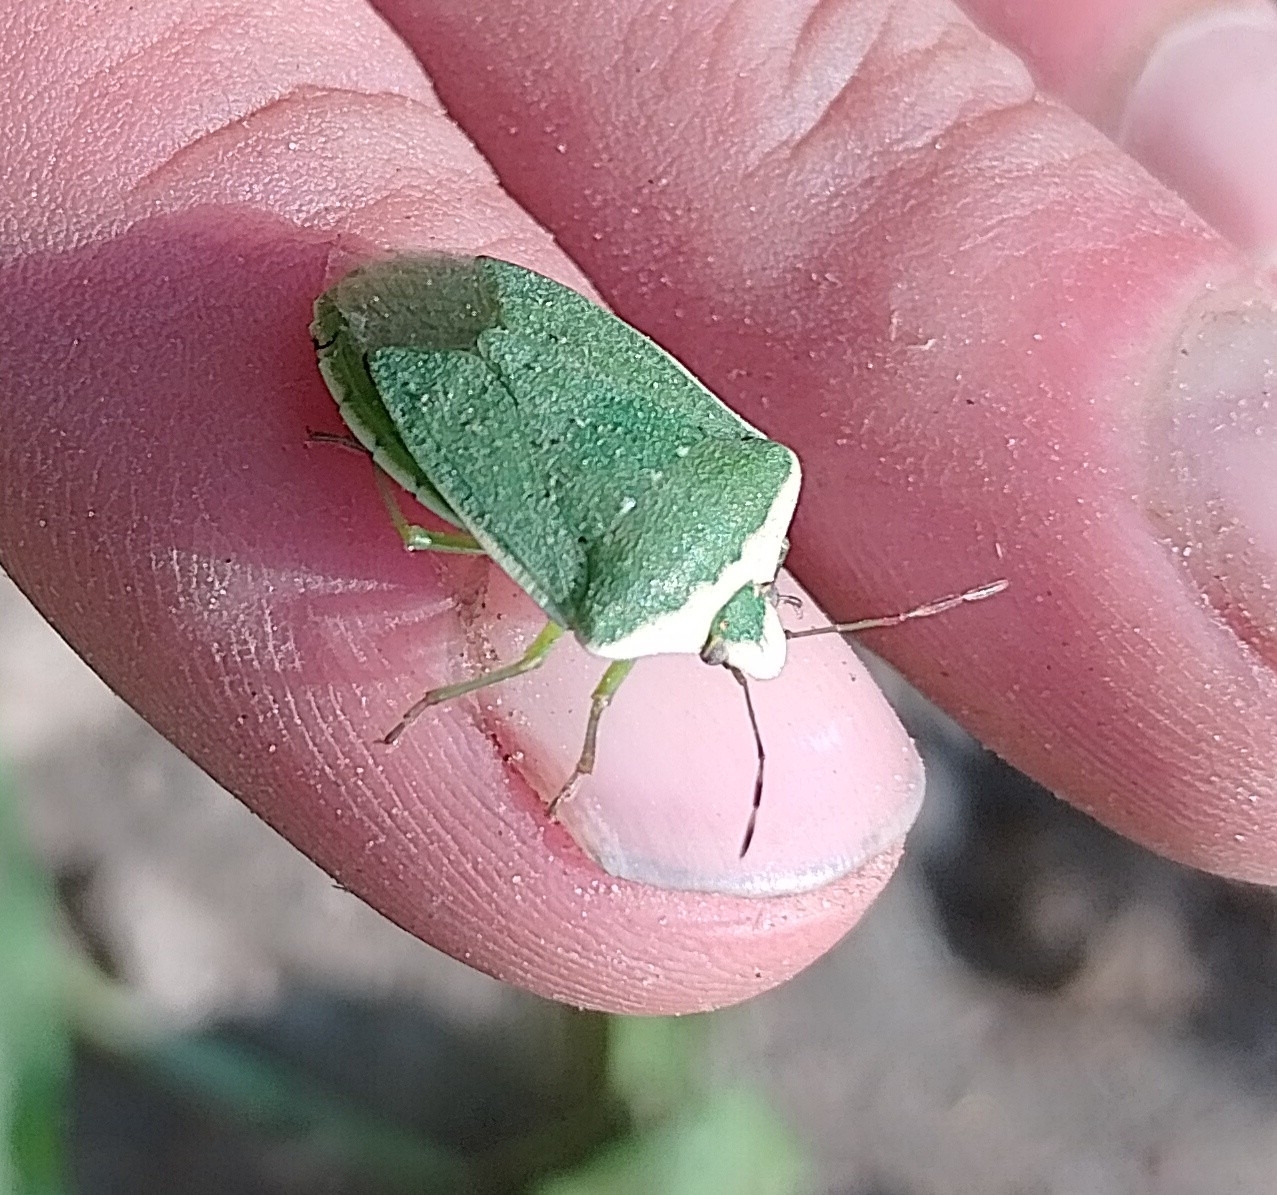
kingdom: Animalia
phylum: Arthropoda
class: Insecta
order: Hemiptera
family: Pentatomidae
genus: Nezara
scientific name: Nezara viridula
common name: Southern green stink bug
